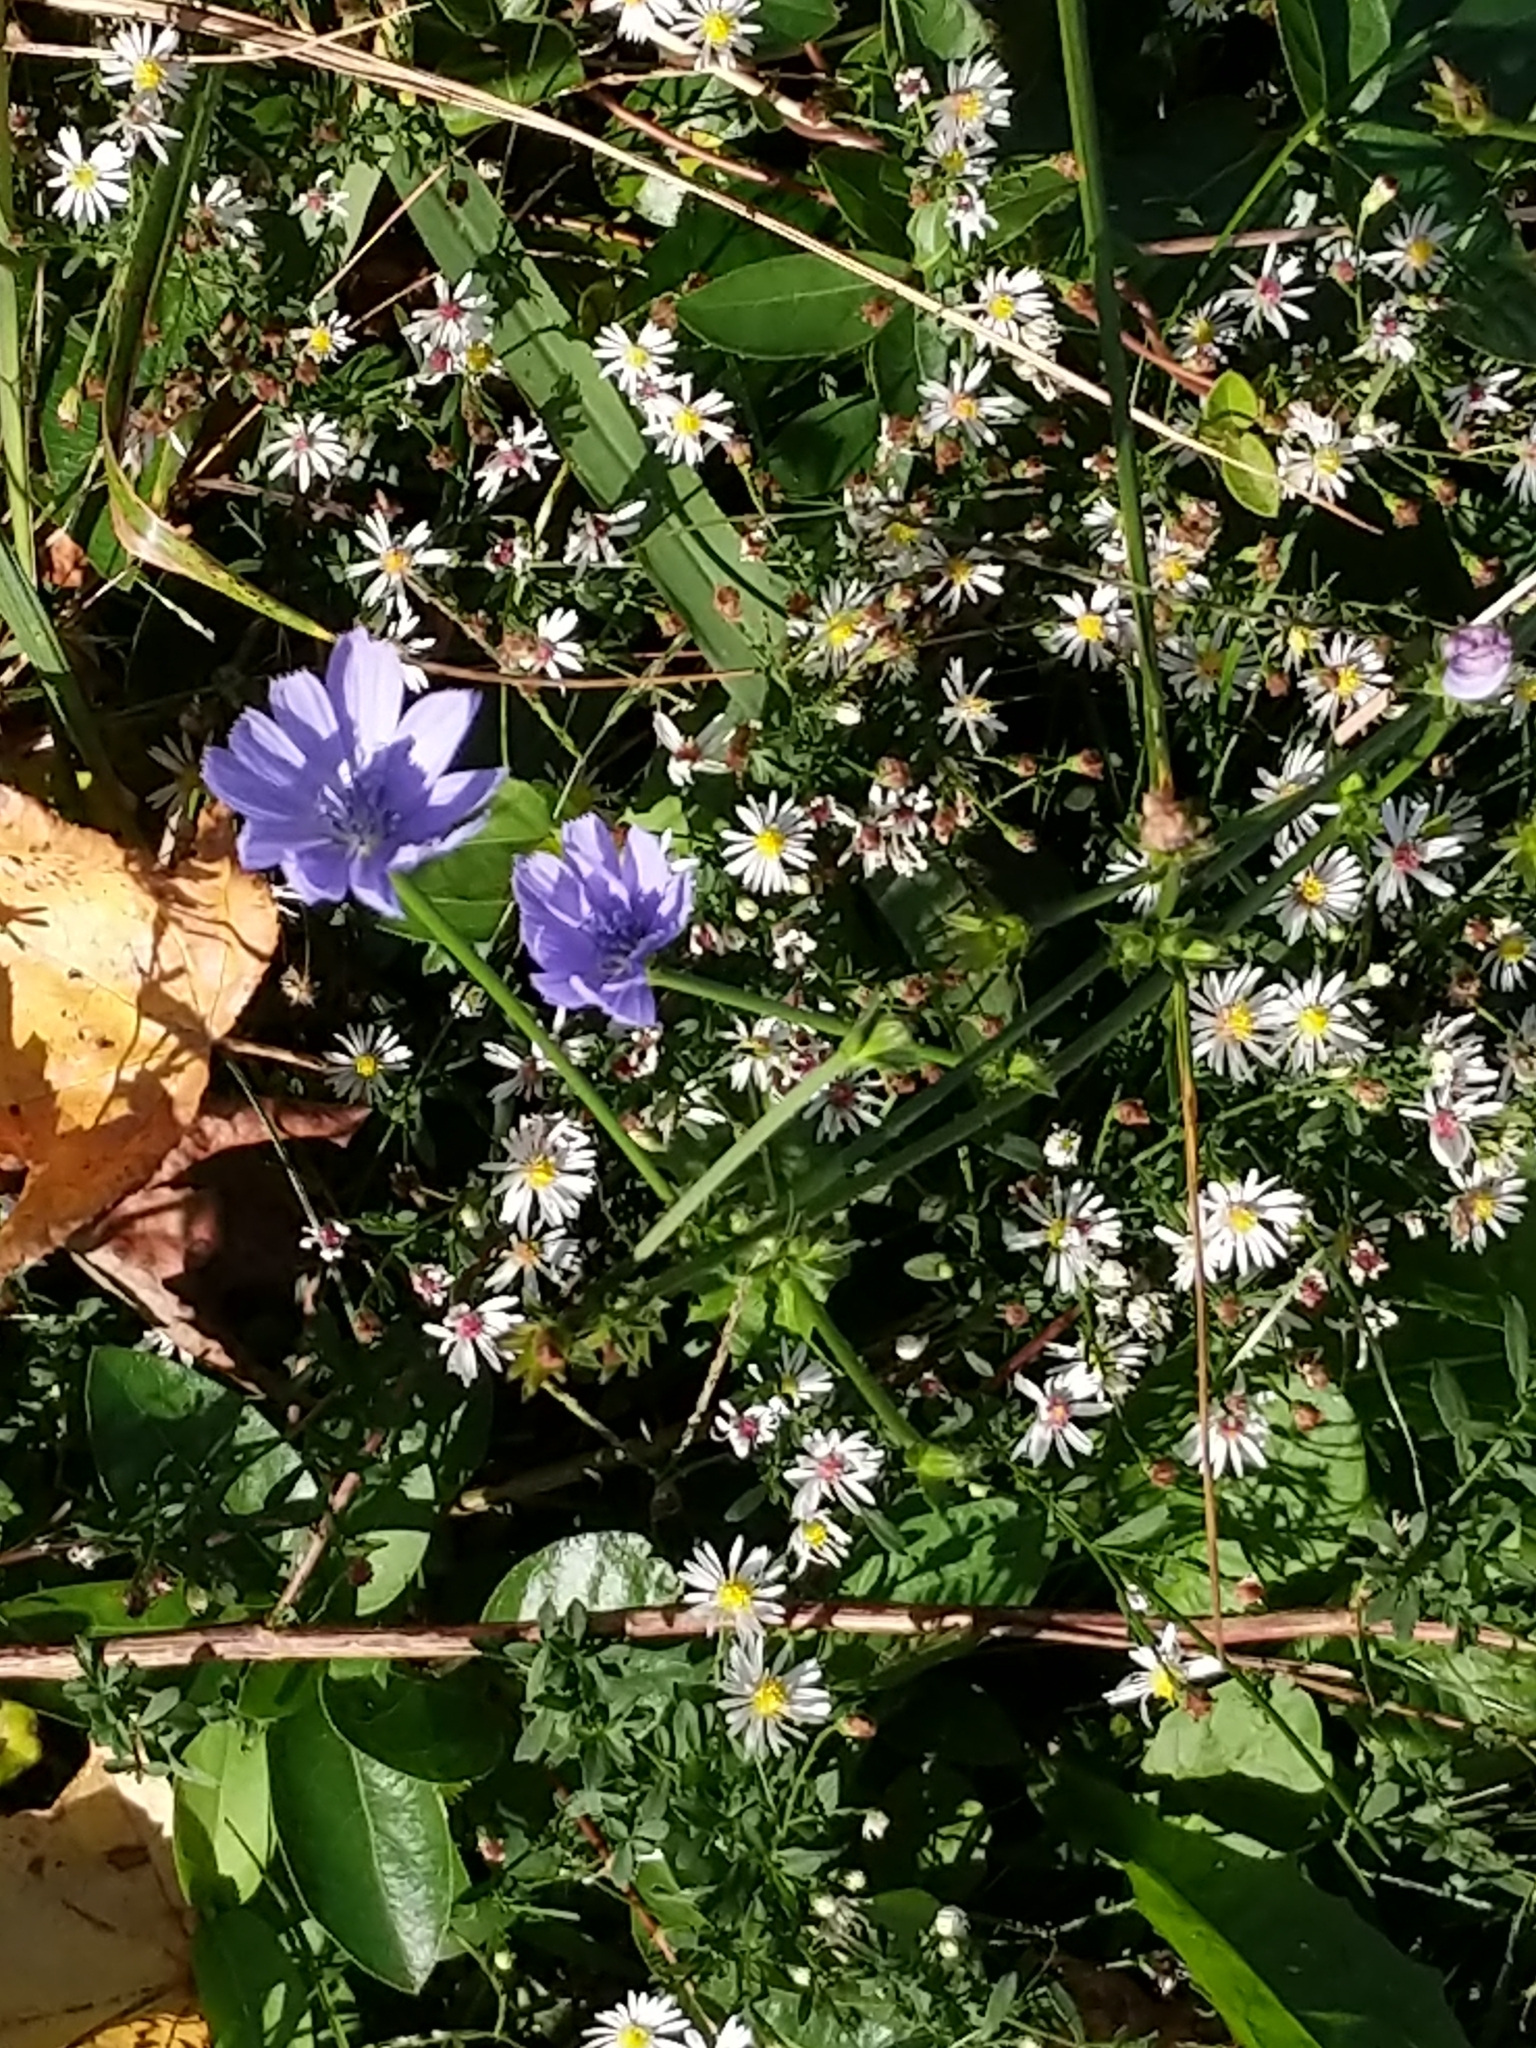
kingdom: Plantae
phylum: Tracheophyta
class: Magnoliopsida
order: Asterales
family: Asteraceae
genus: Cichorium
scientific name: Cichorium intybus
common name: Chicory
